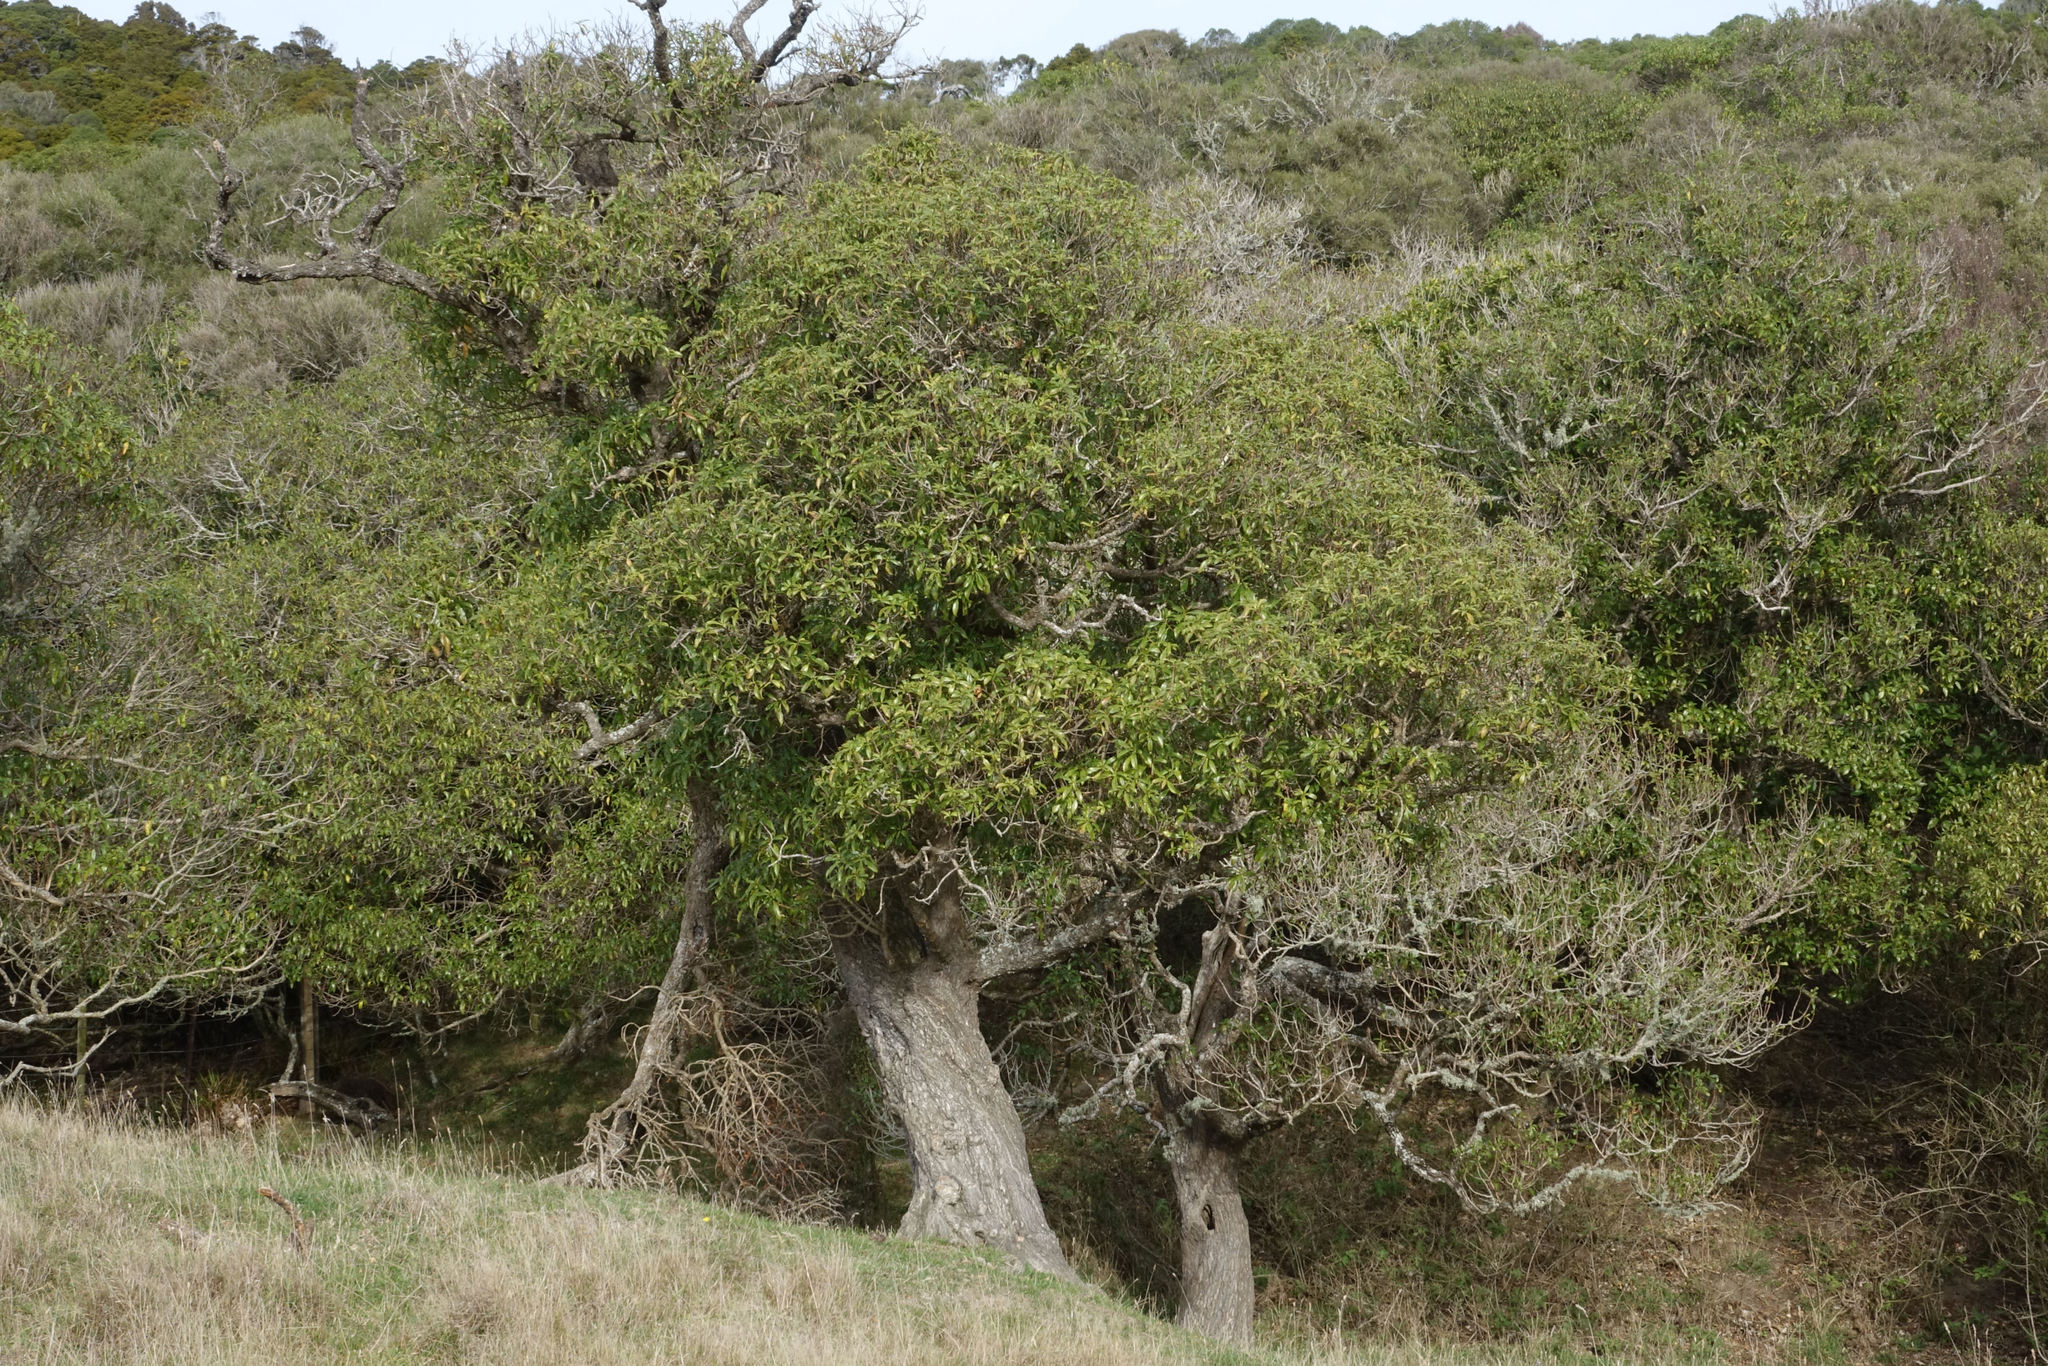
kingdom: Plantae
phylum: Tracheophyta
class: Magnoliopsida
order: Lamiales
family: Scrophulariaceae
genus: Myoporum
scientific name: Myoporum laetum
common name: Ngaio tree
